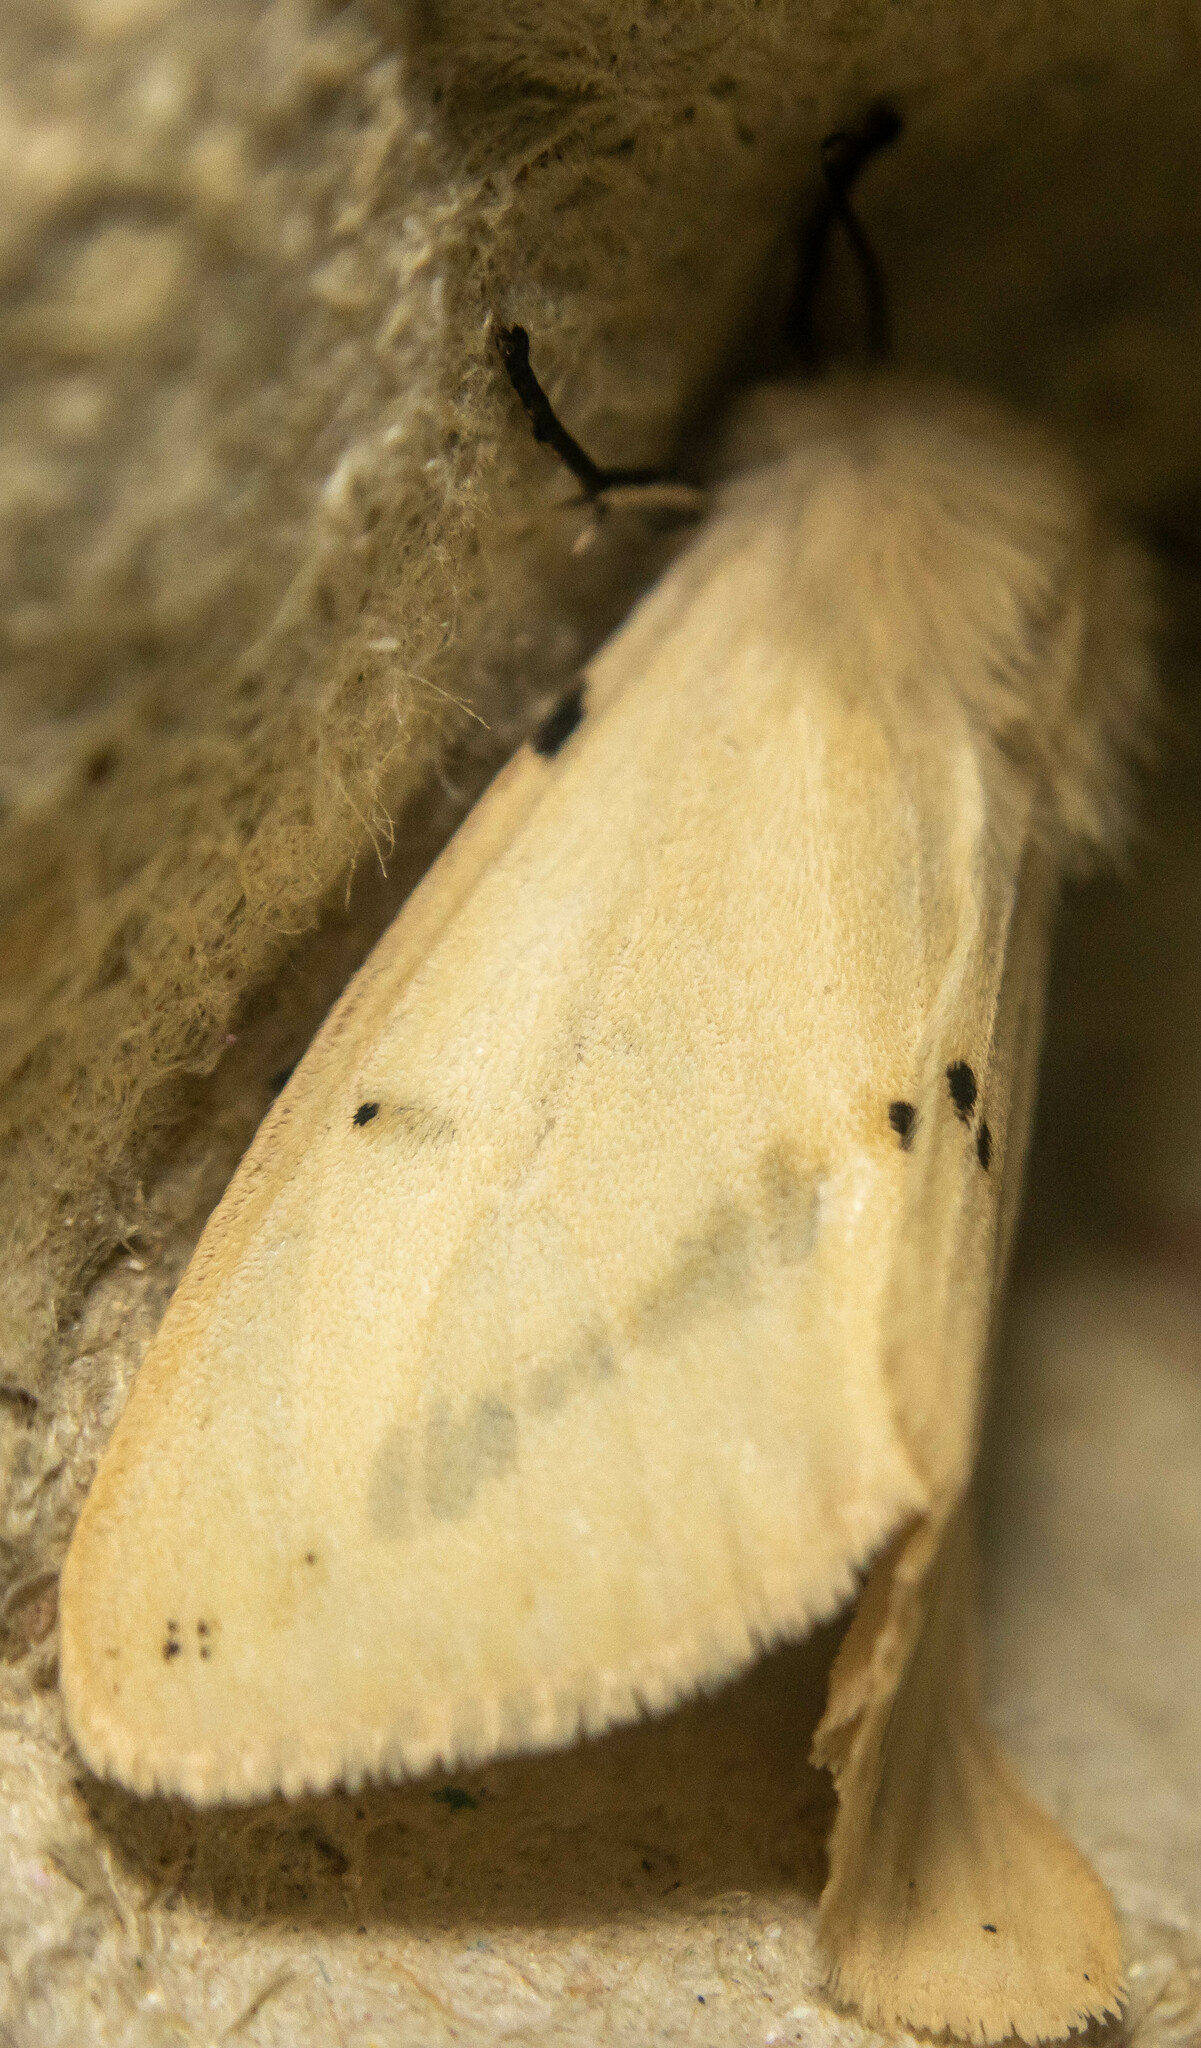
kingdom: Animalia
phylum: Arthropoda
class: Insecta
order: Lepidoptera
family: Erebidae
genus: Spilarctia
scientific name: Spilarctia lutea
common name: Buff ermine
